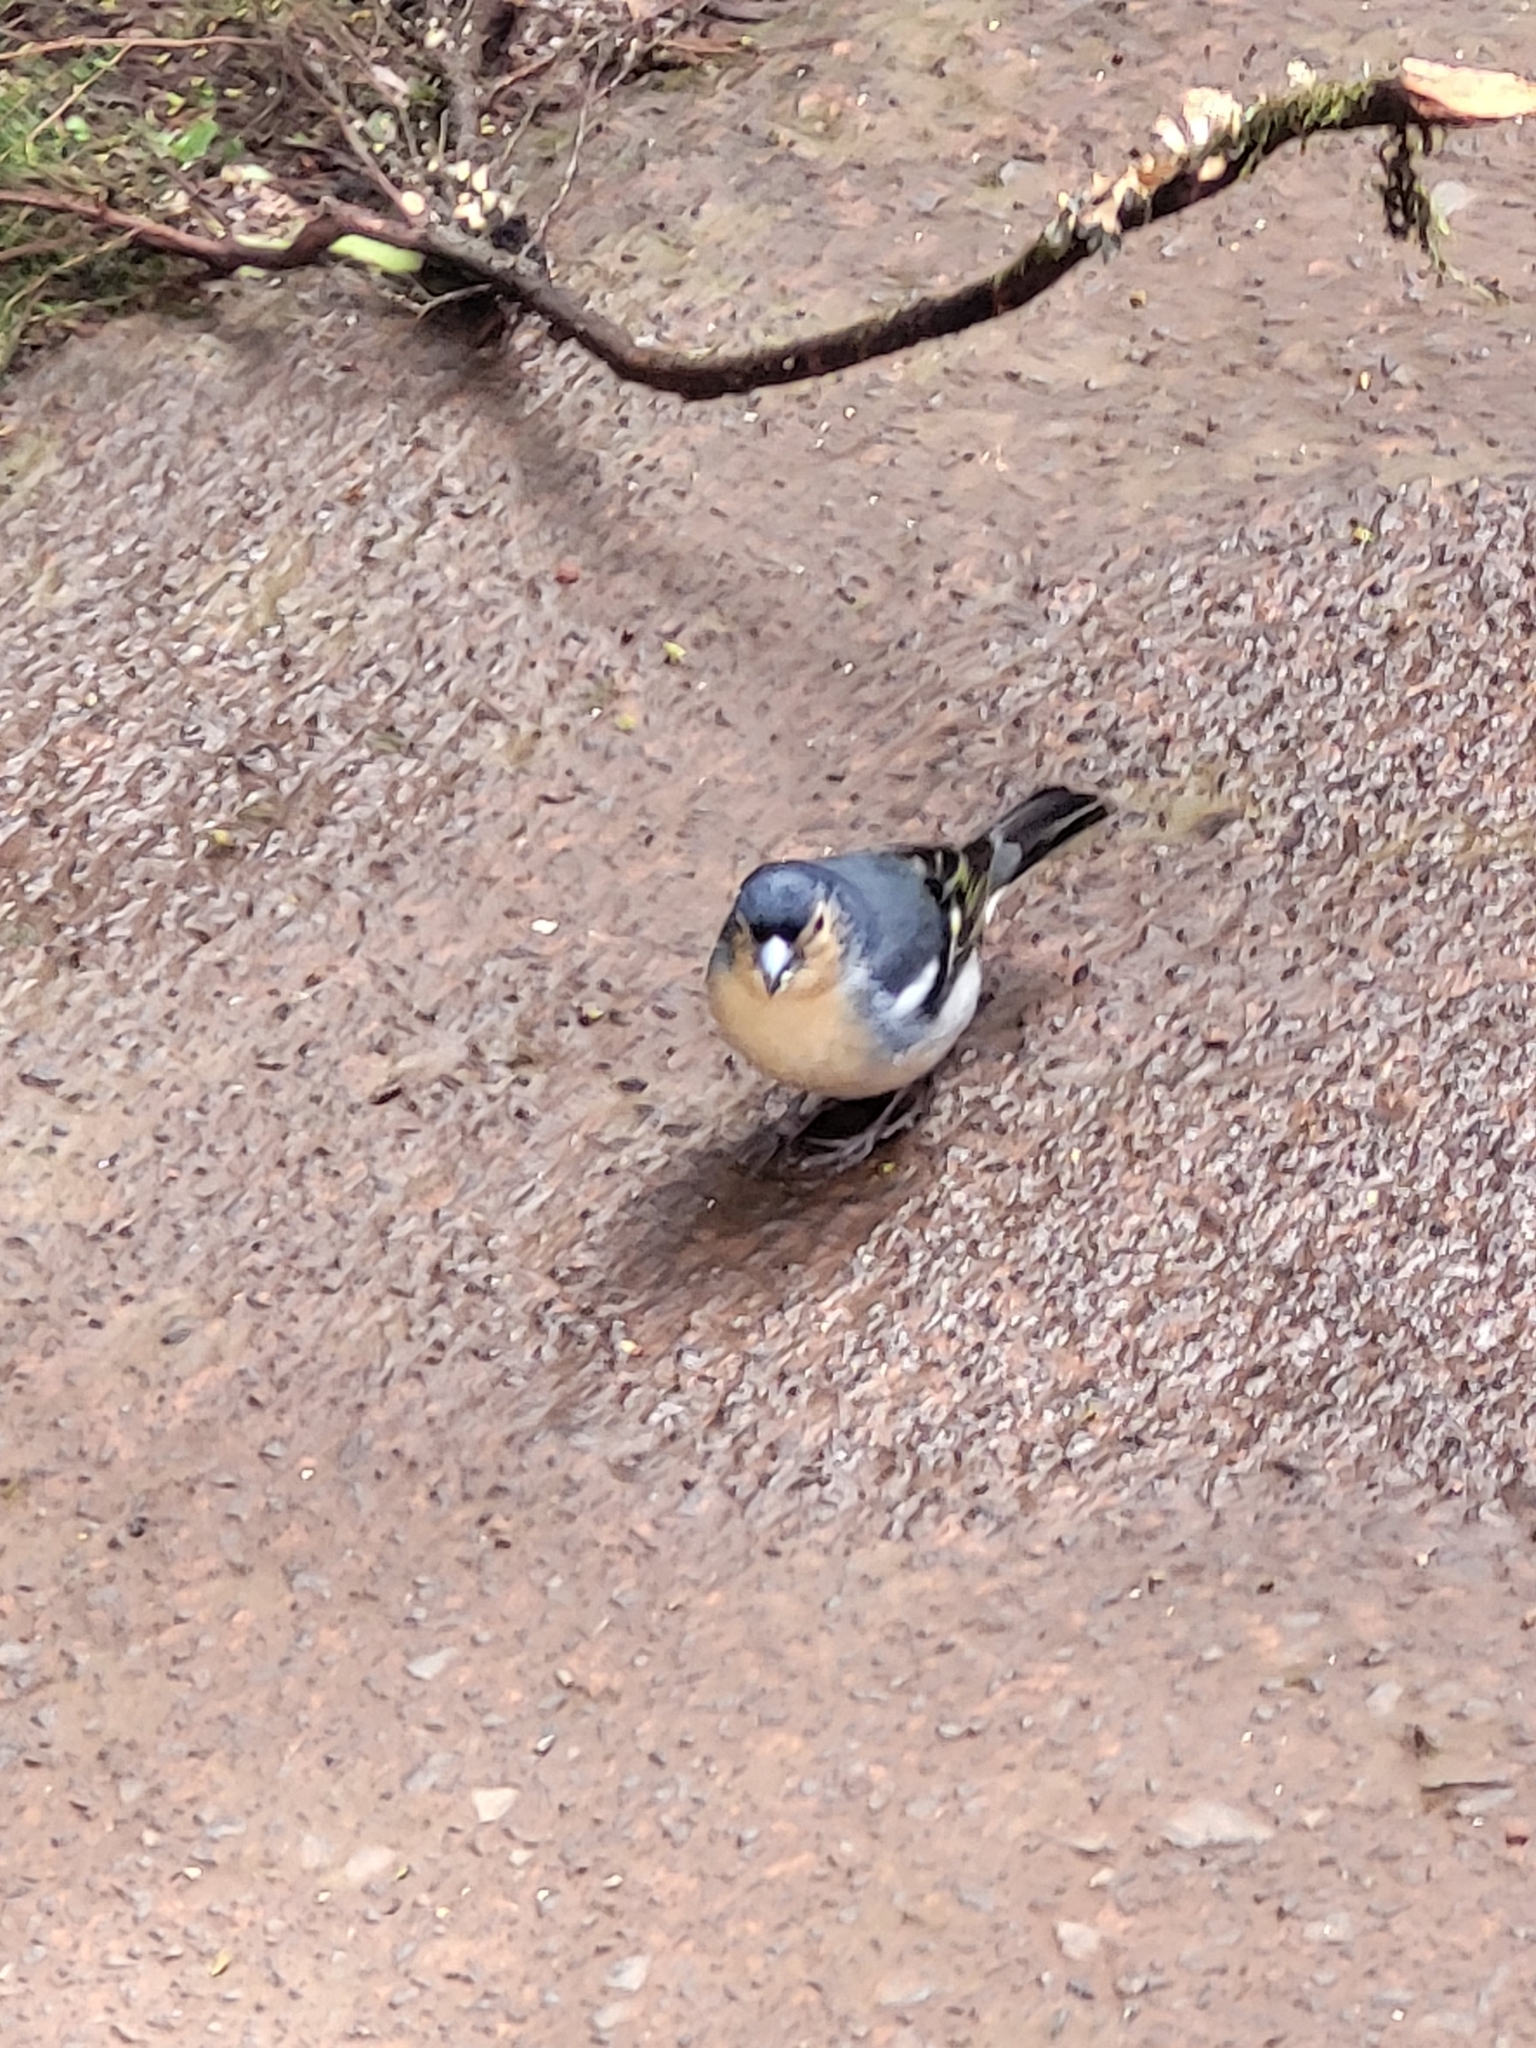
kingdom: Animalia
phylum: Chordata
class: Aves
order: Passeriformes
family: Fringillidae
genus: Fringilla
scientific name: Fringilla canariensis
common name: Canary islands chaffinch
